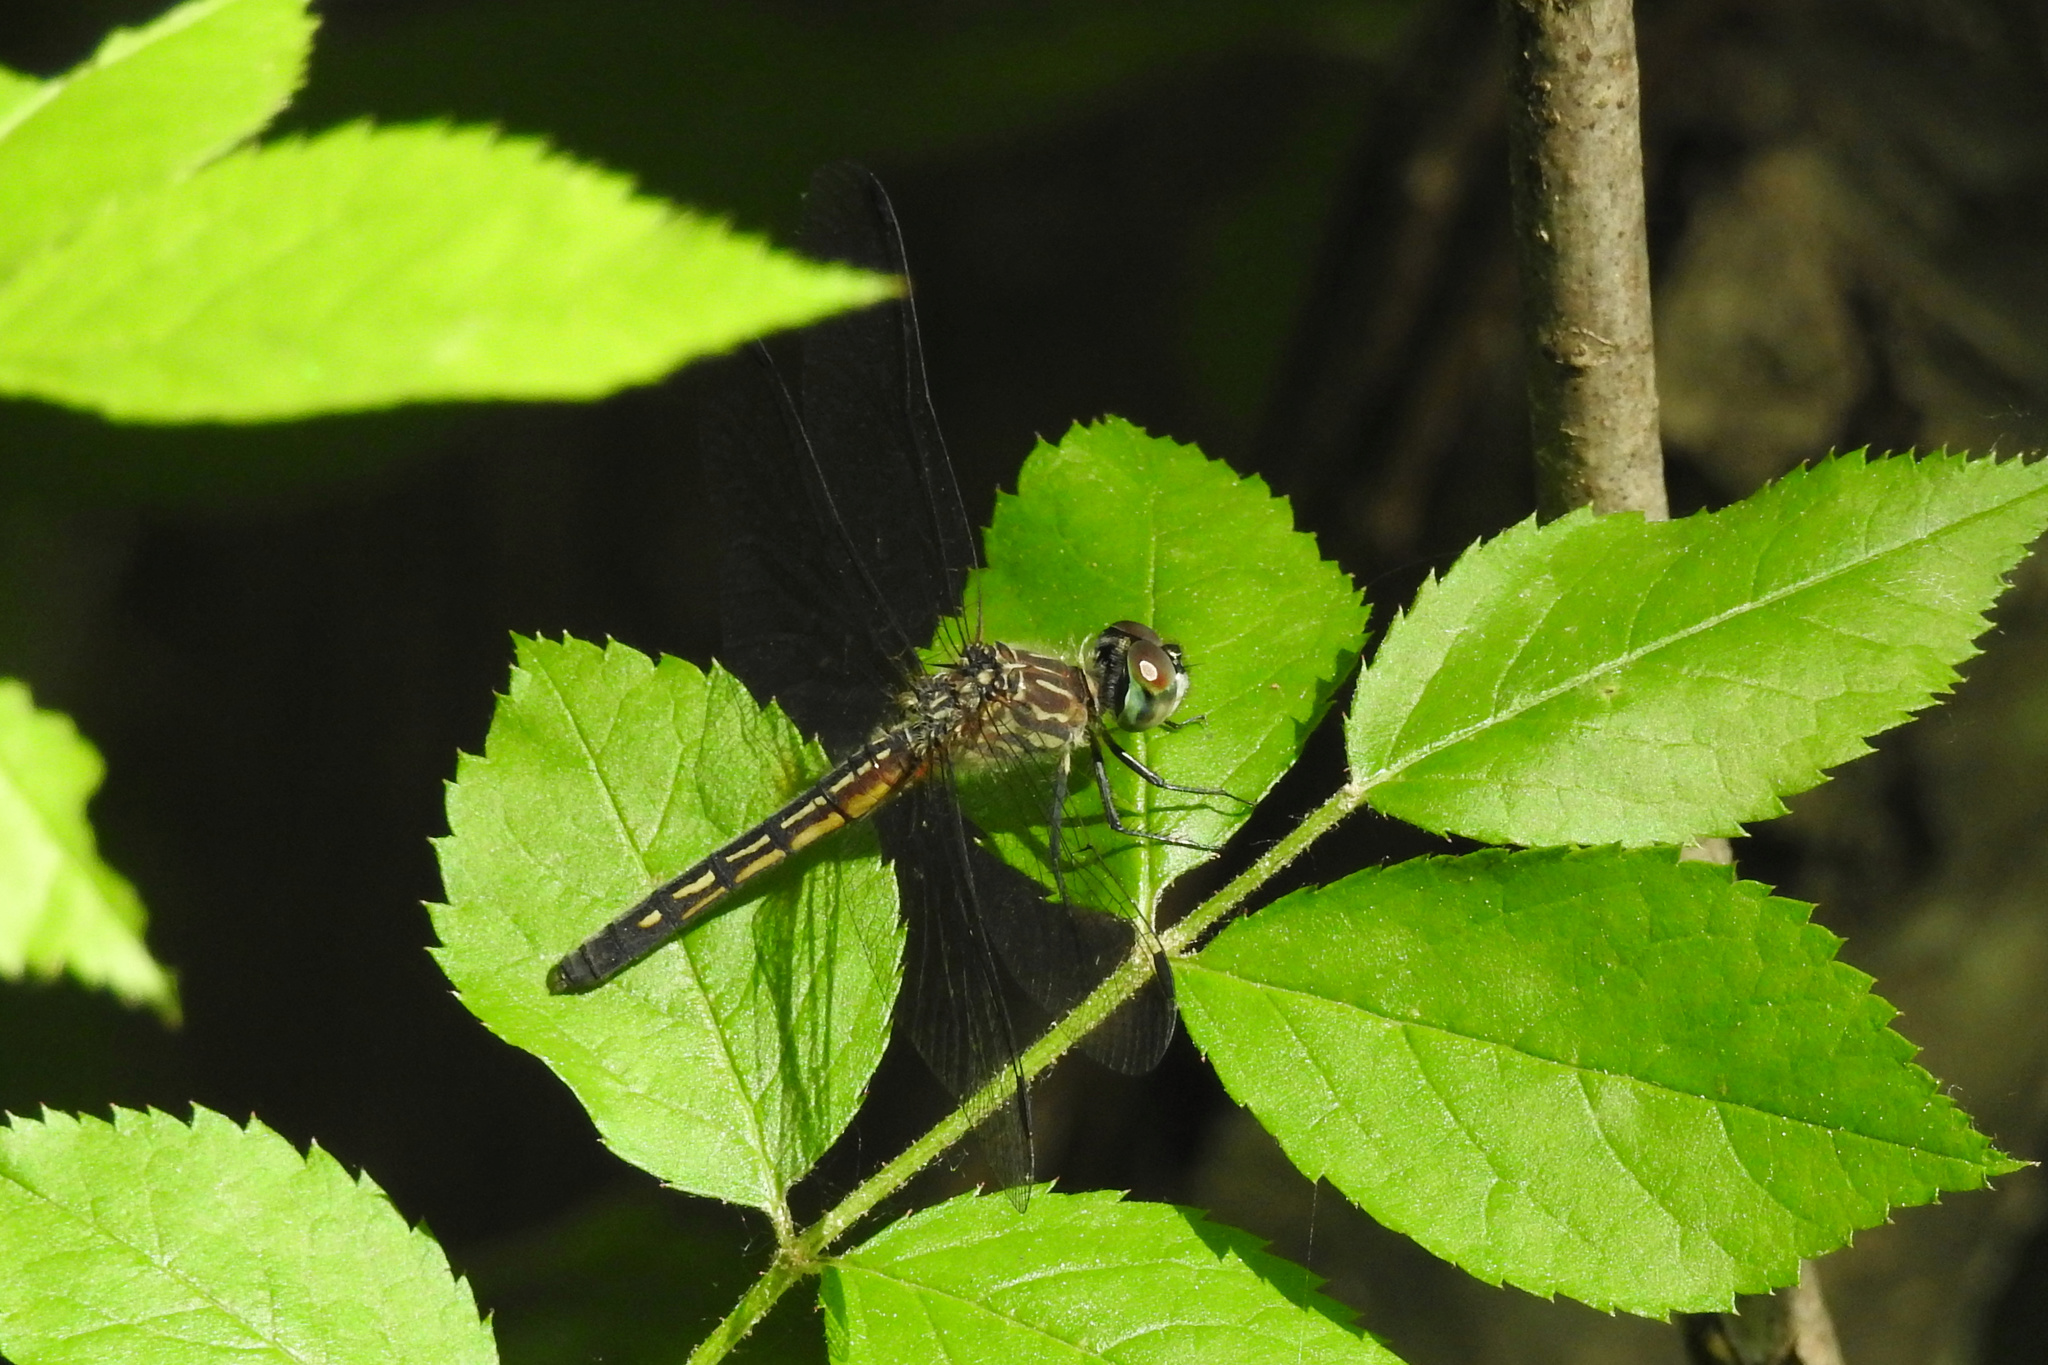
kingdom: Animalia
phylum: Arthropoda
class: Insecta
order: Odonata
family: Libellulidae
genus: Pachydiplax
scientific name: Pachydiplax longipennis
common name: Blue dasher
